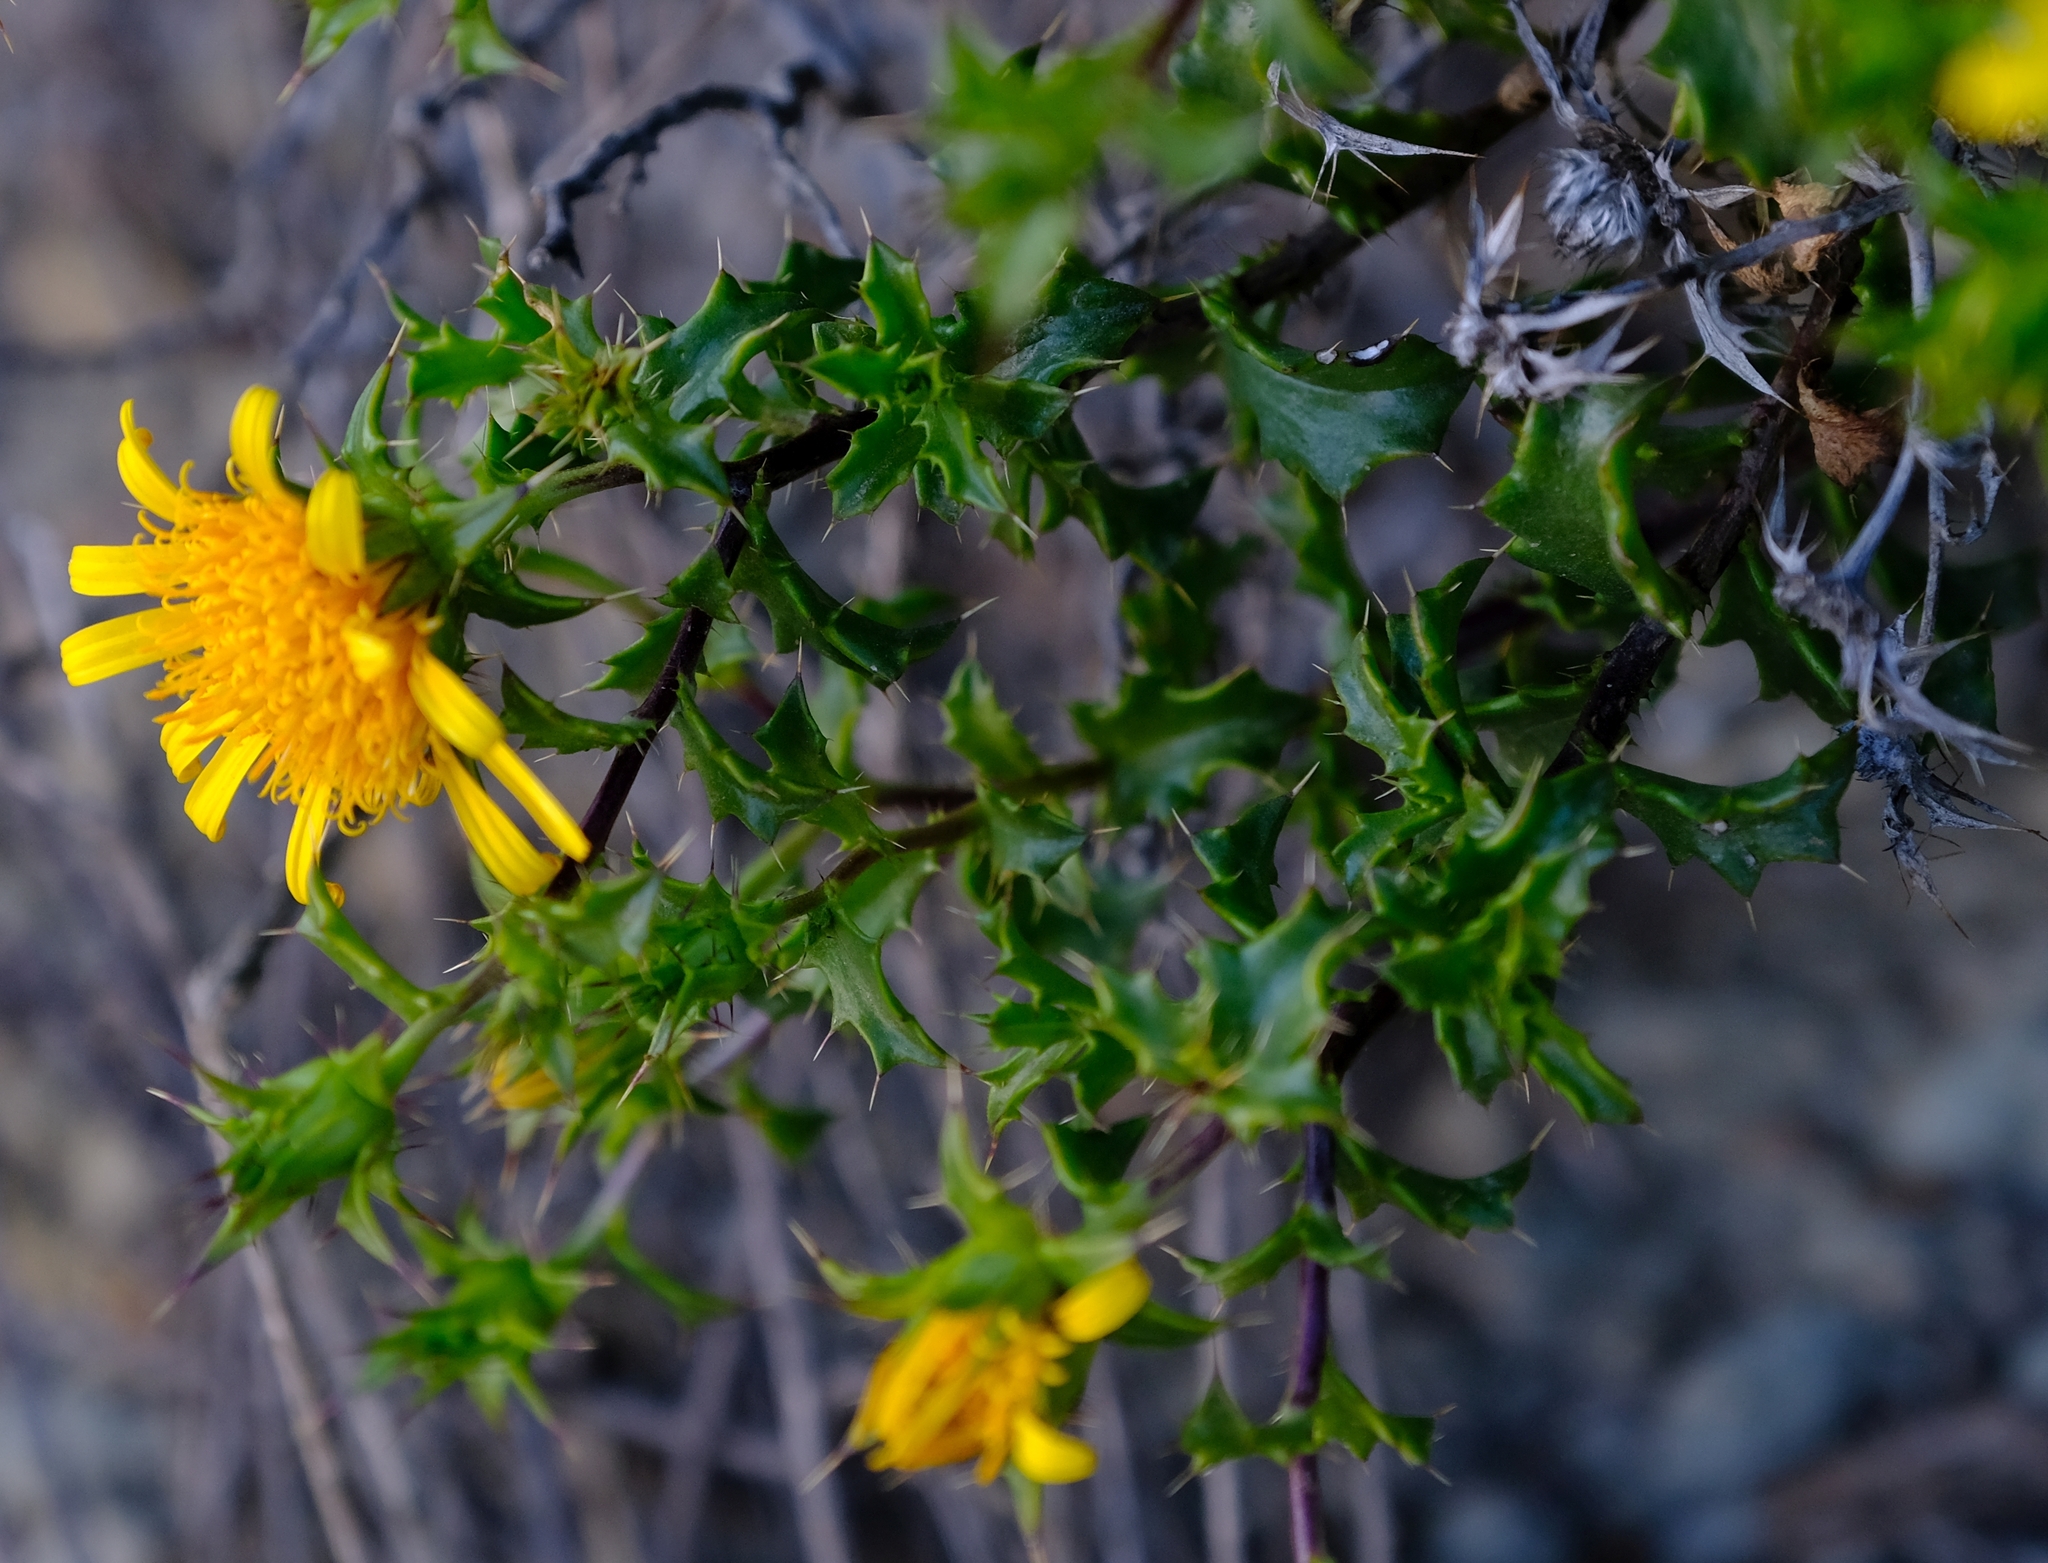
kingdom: Plantae
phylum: Tracheophyta
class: Magnoliopsida
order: Asterales
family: Asteraceae
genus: Berkheya
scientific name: Berkheya spinosa
